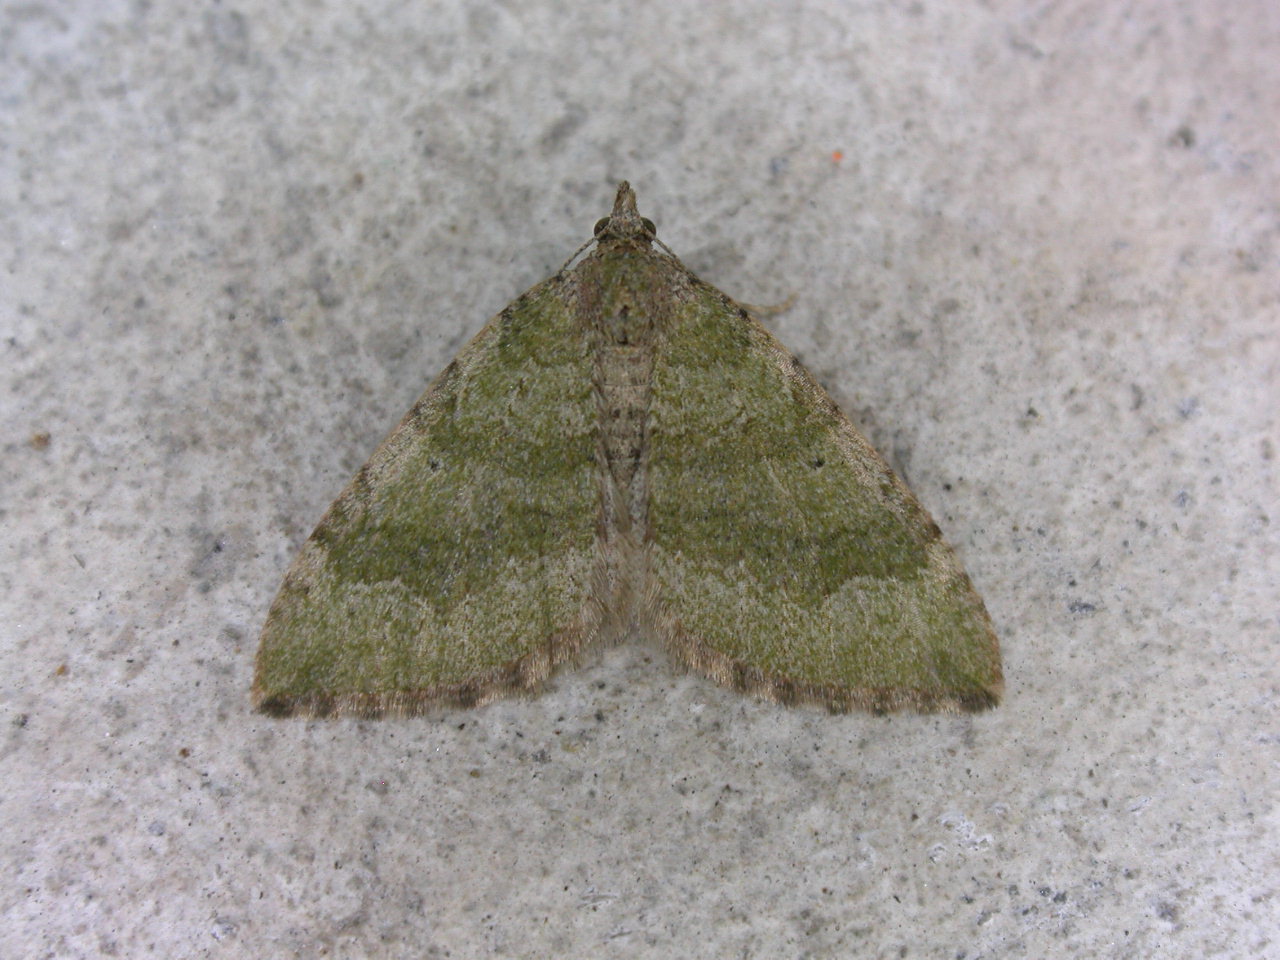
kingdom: Animalia
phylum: Arthropoda
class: Insecta
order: Lepidoptera
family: Geometridae
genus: Epyaxa
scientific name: Epyaxa rosearia
